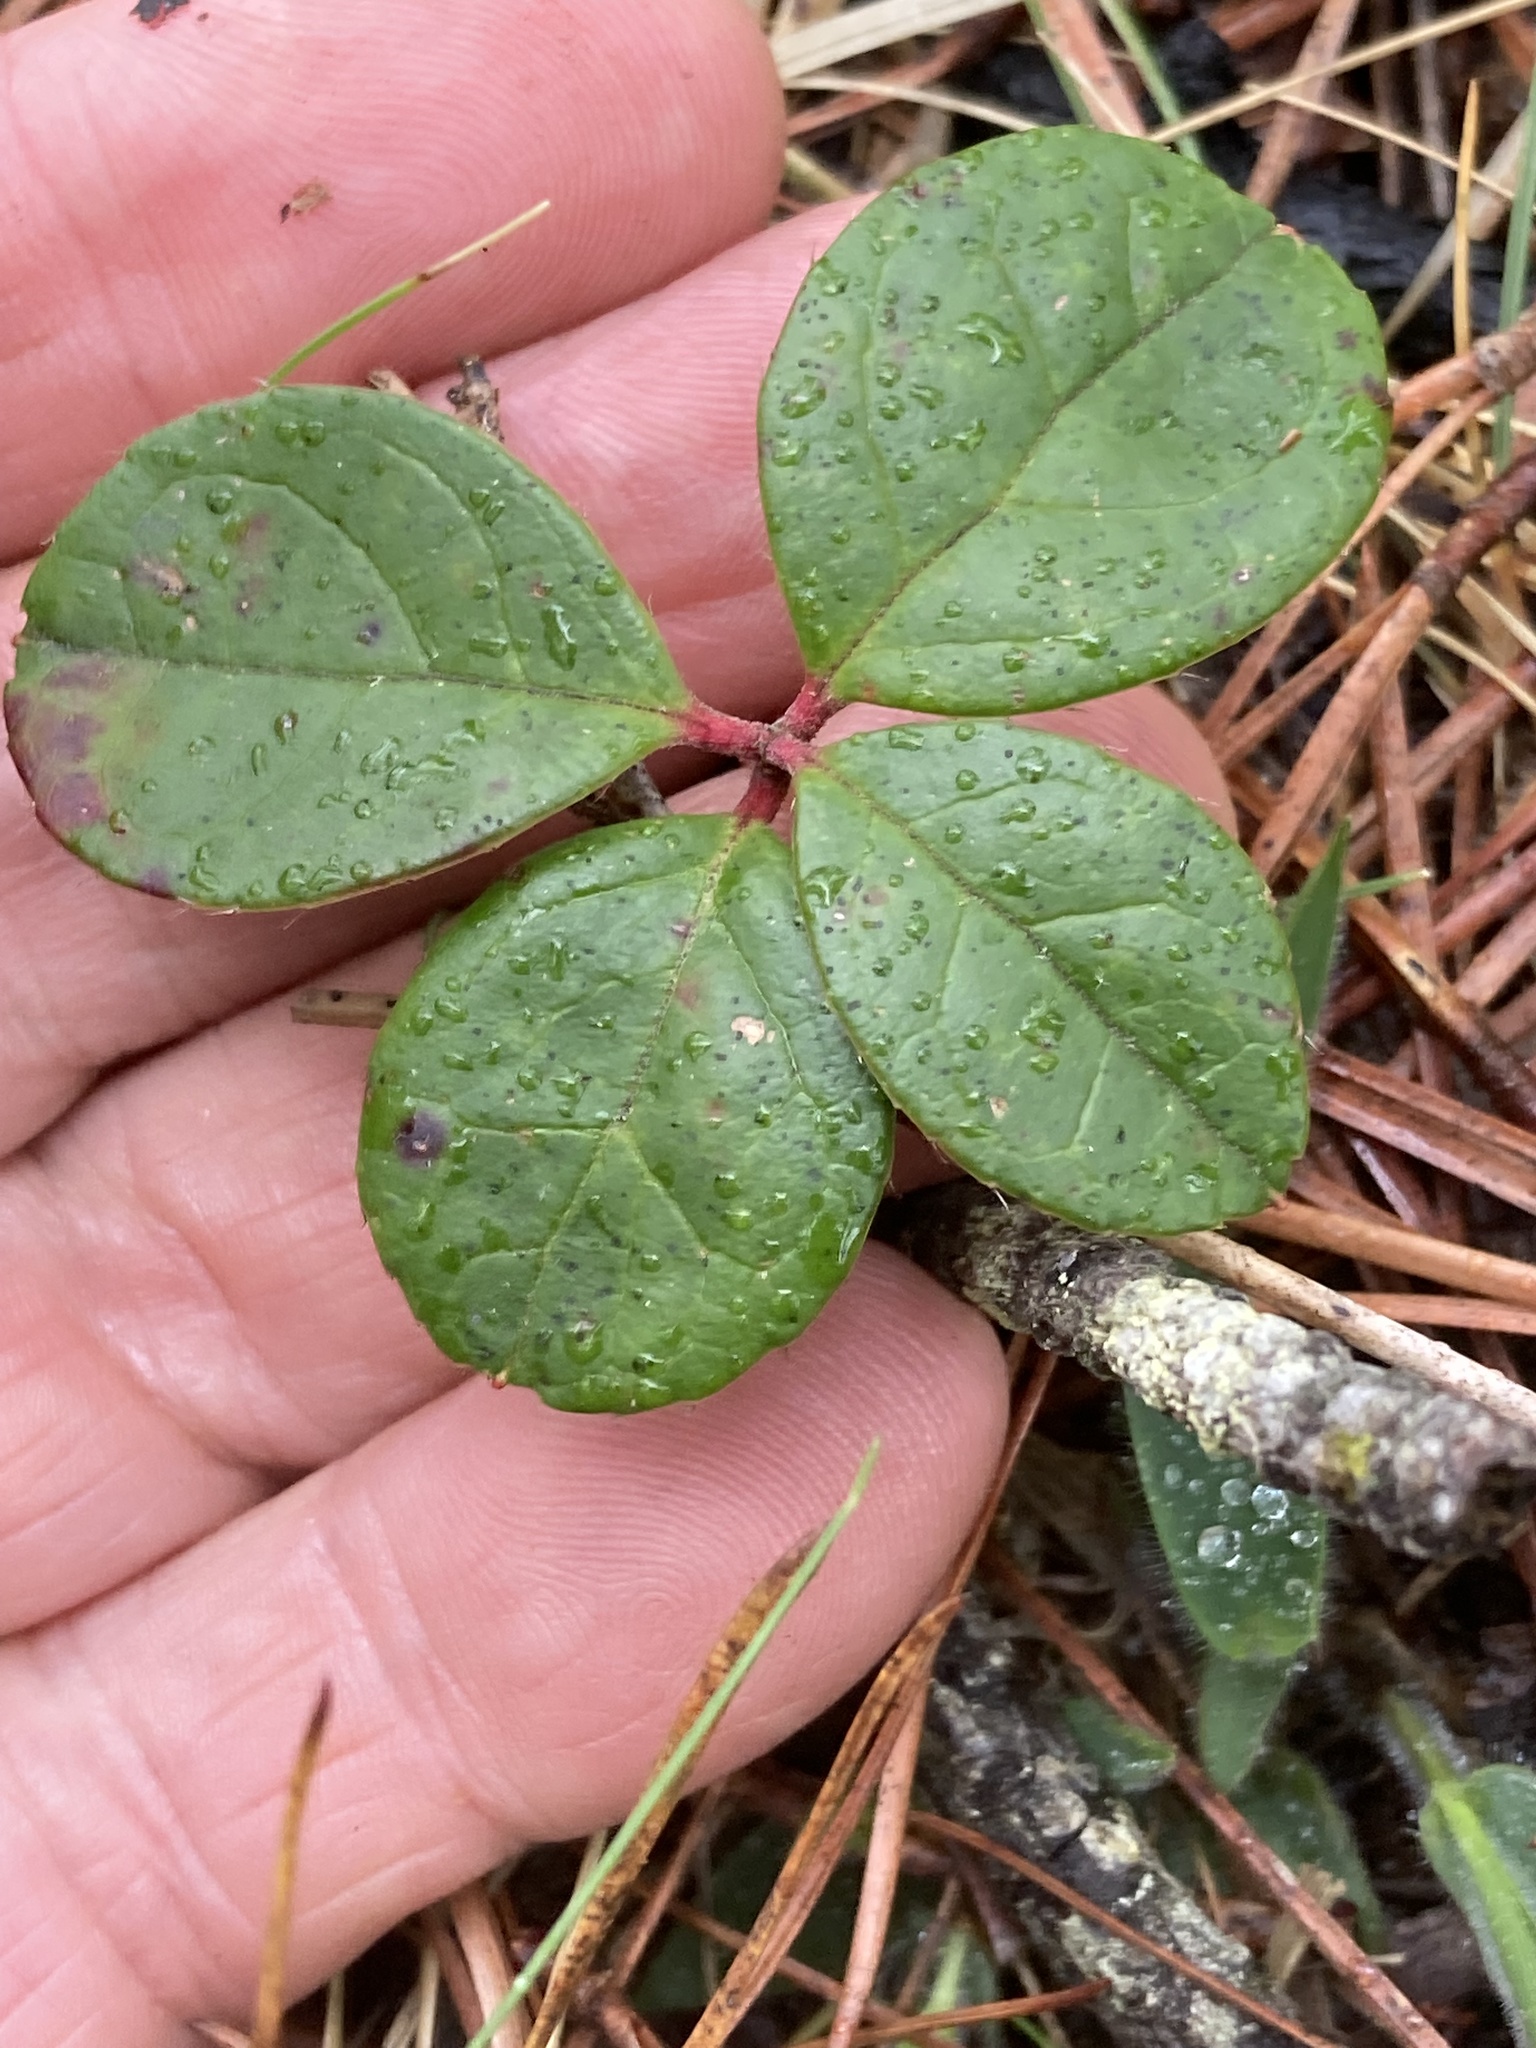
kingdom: Plantae
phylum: Tracheophyta
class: Magnoliopsida
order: Ericales
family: Ericaceae
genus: Gaultheria
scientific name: Gaultheria procumbens
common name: Checkerberry
